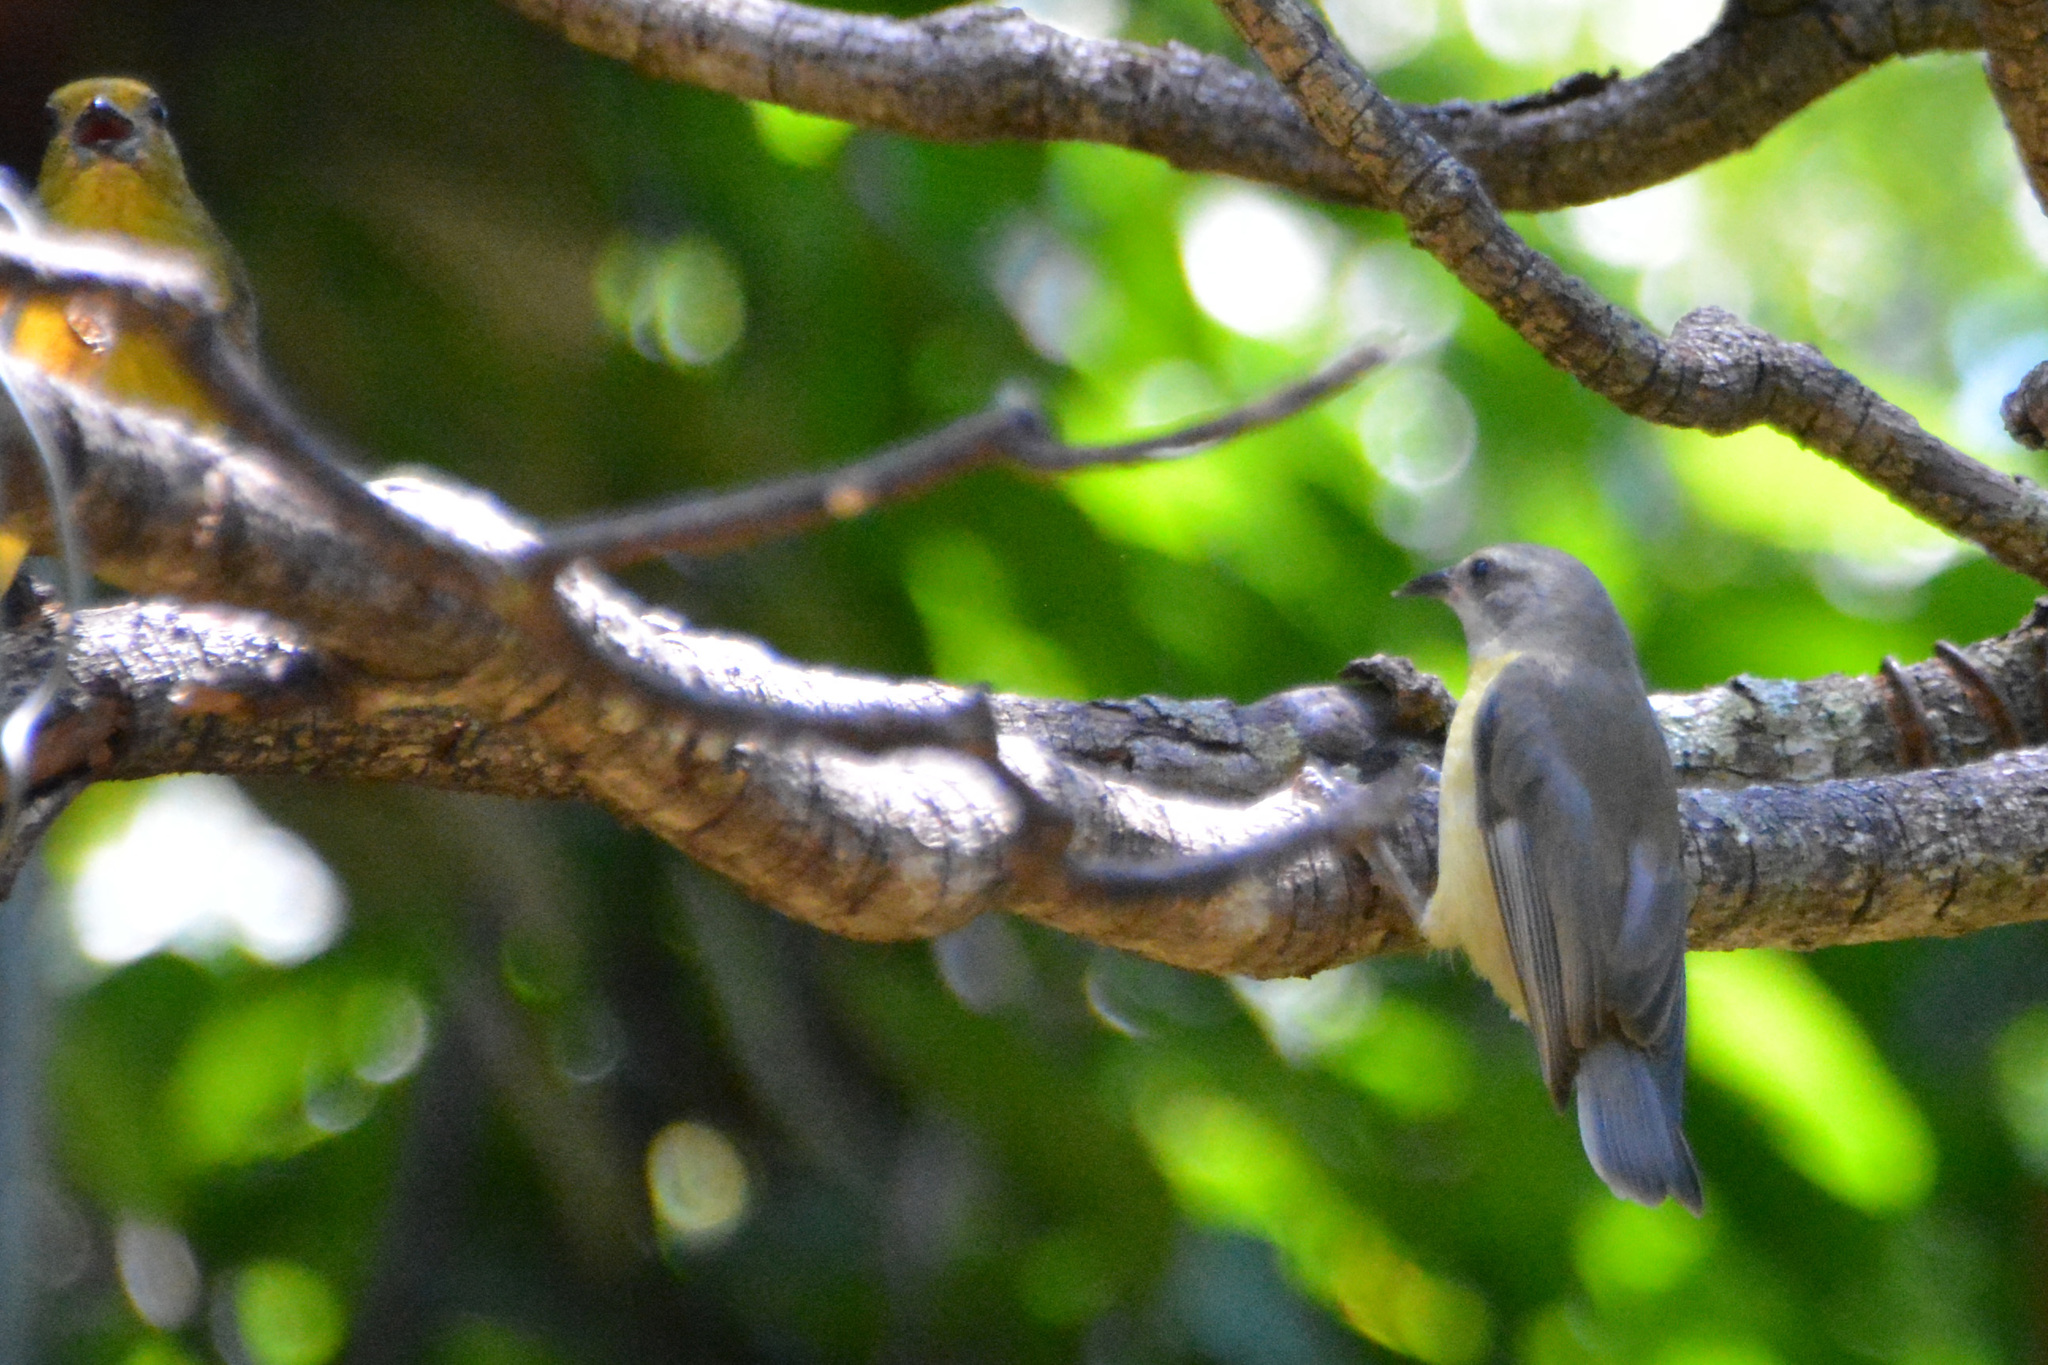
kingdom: Animalia
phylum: Chordata
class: Aves
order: Passeriformes
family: Fringillidae
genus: Euphonia
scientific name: Euphonia violacea
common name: Violaceous euphonia
